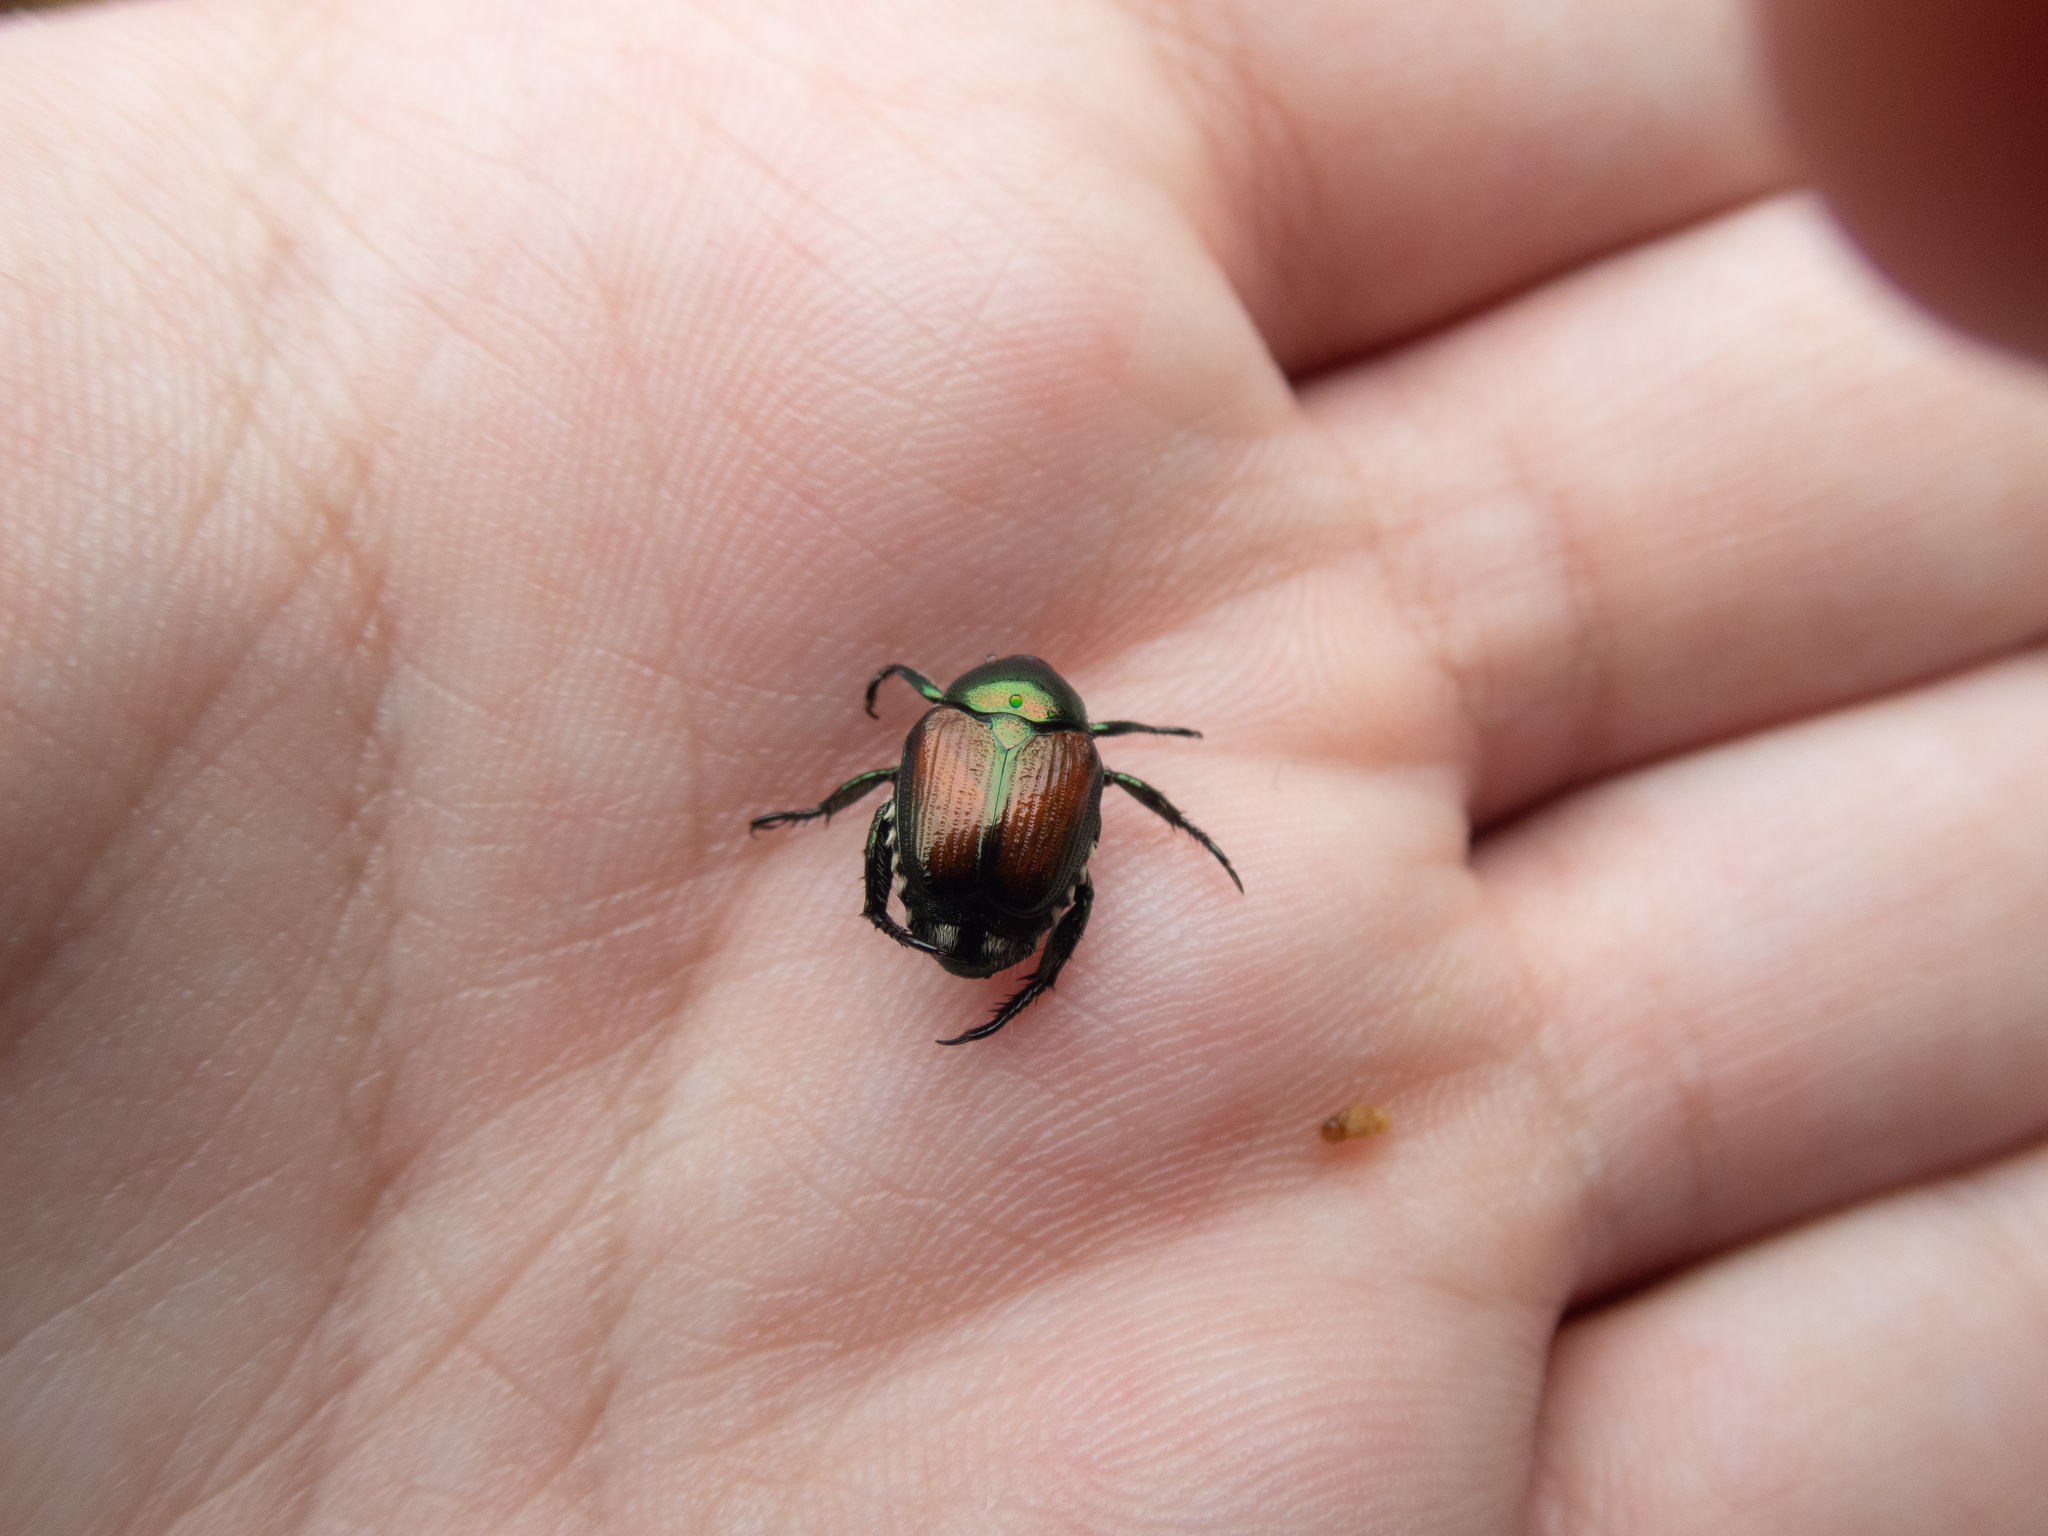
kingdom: Animalia
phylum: Arthropoda
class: Insecta
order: Coleoptera
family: Scarabaeidae
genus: Popillia
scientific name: Popillia japonica
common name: Japanese beetle
